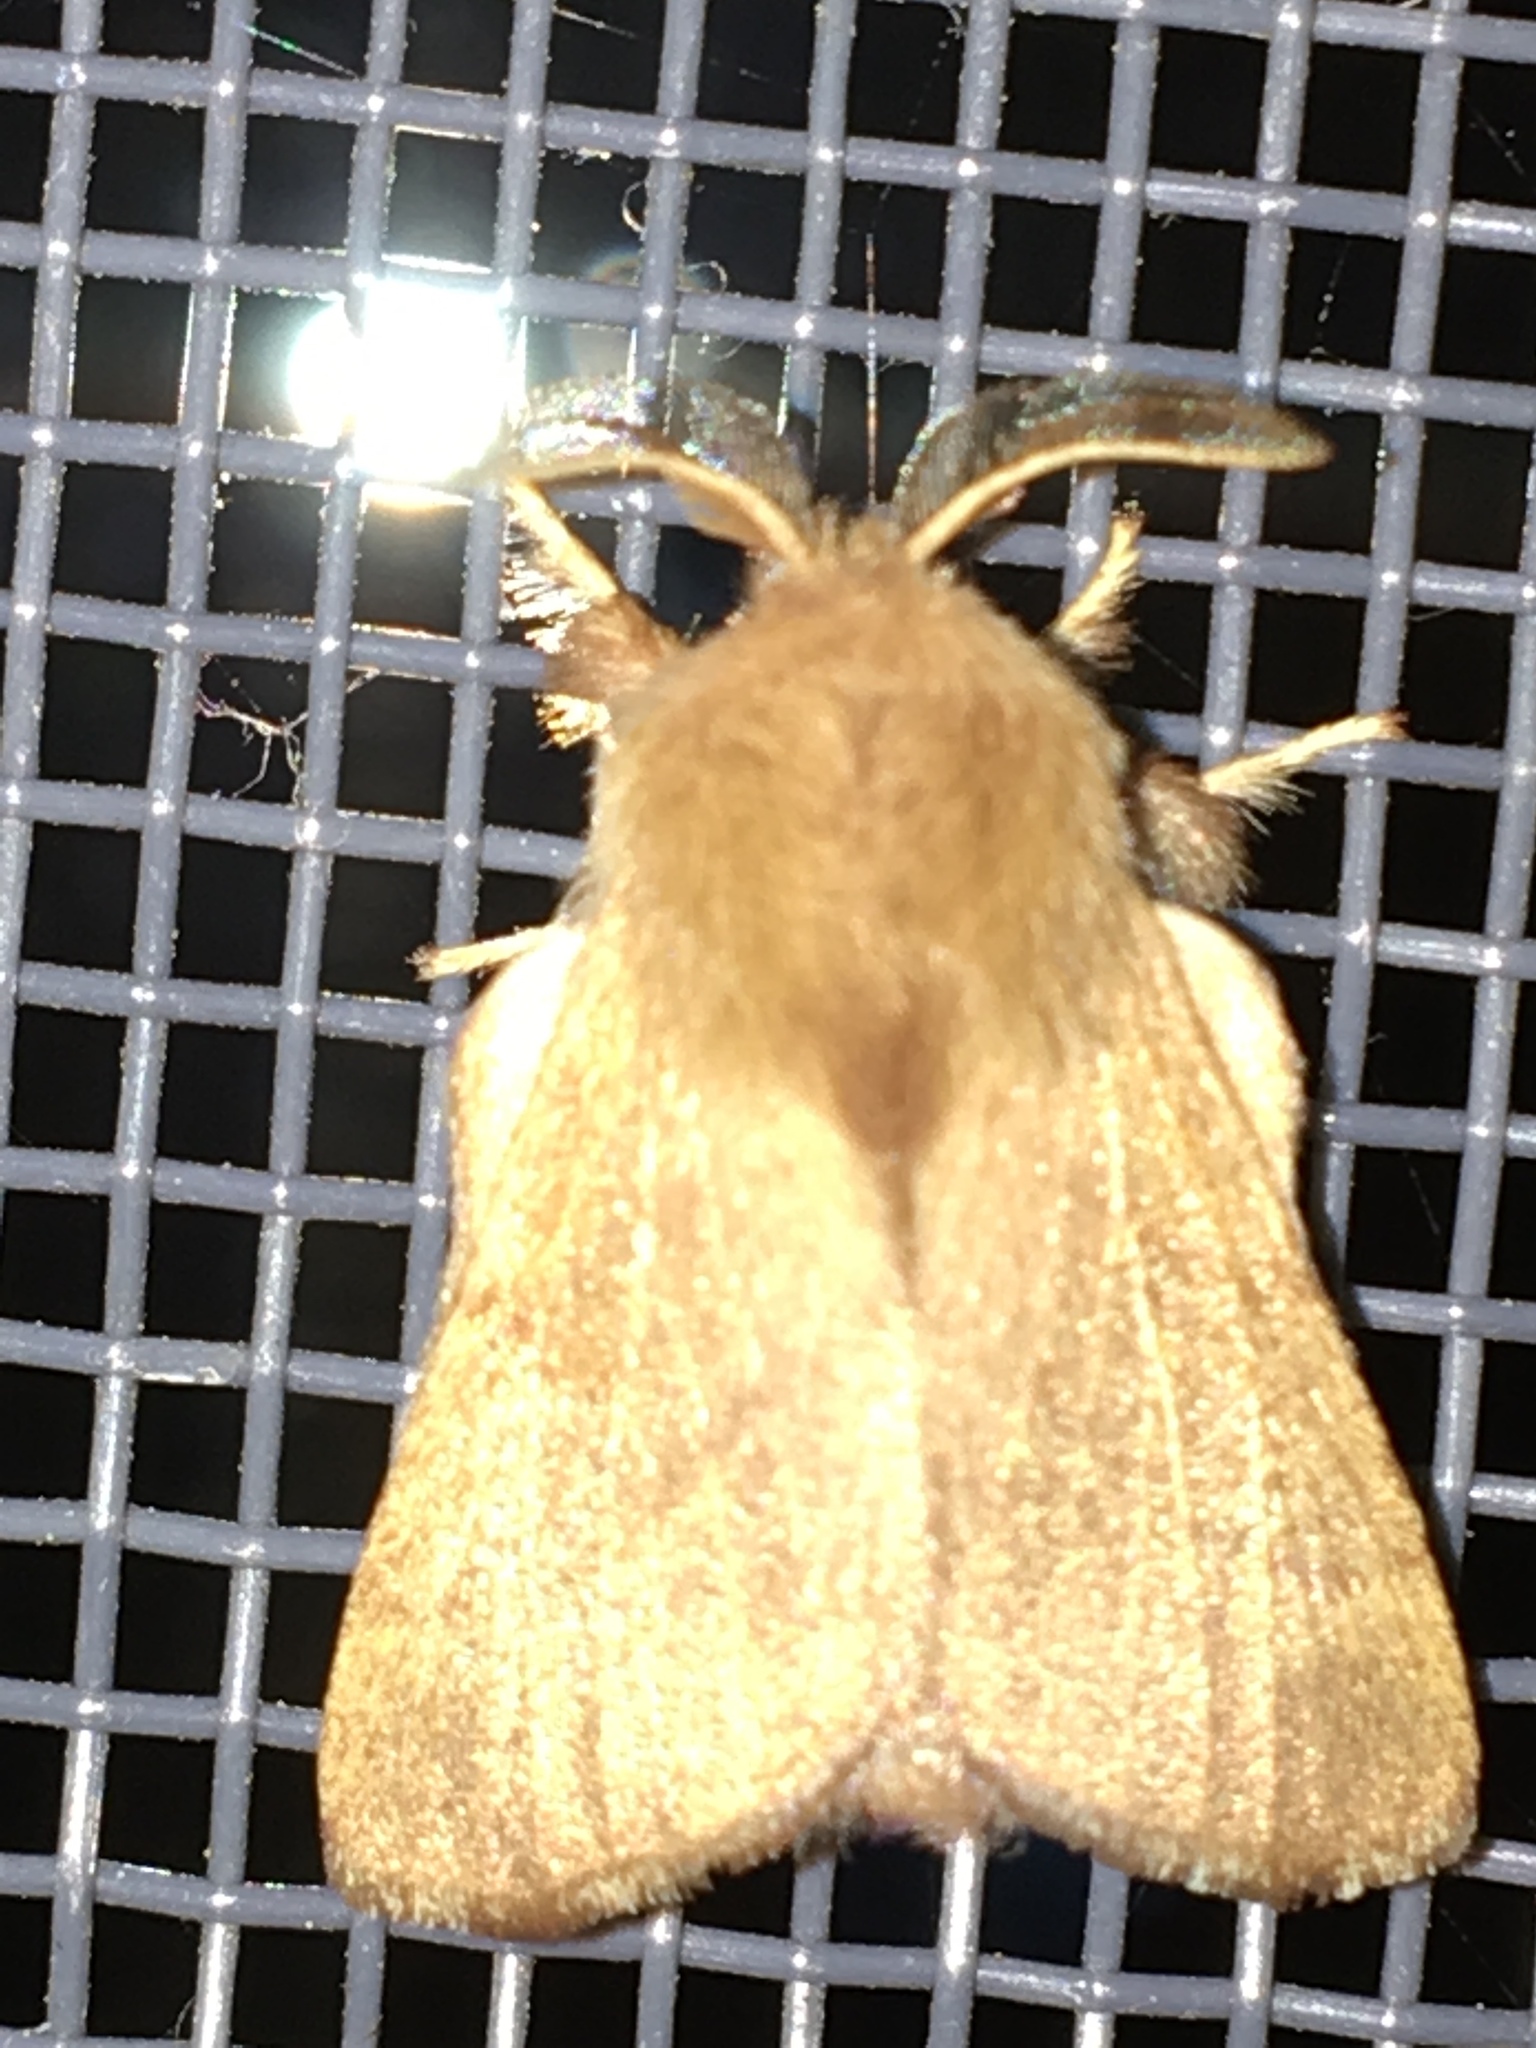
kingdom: Animalia
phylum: Arthropoda
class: Insecta
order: Lepidoptera
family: Lasiocampidae
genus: Malacosoma
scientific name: Malacosoma disstria
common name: Forest tent caterpillar
